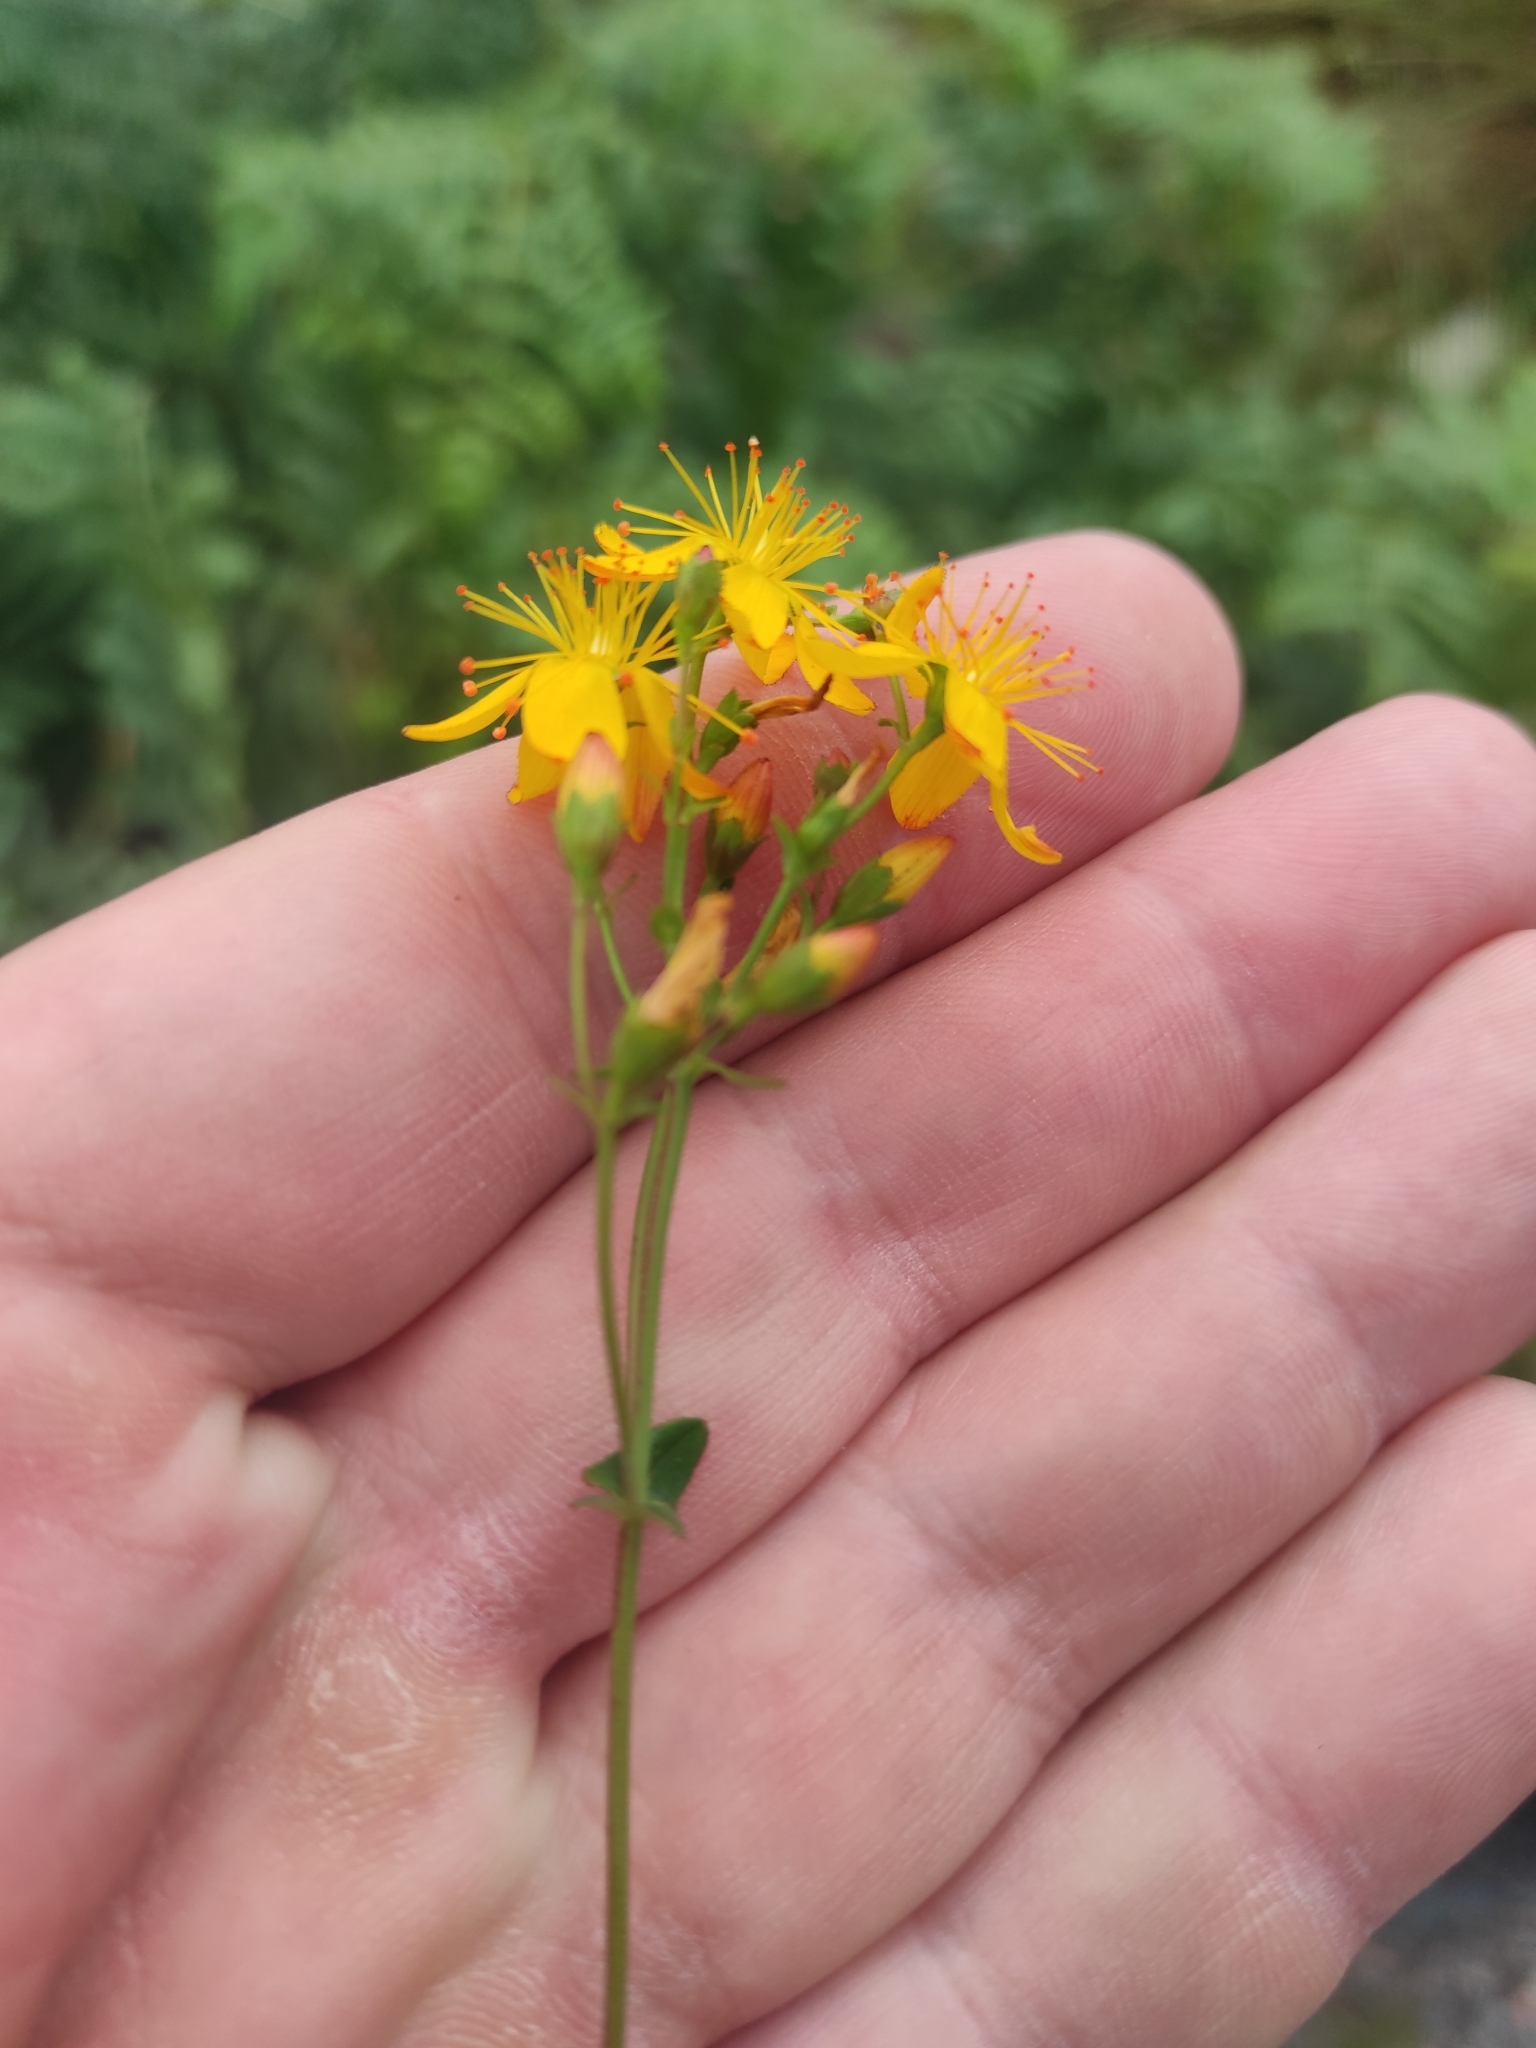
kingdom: Plantae
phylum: Tracheophyta
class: Magnoliopsida
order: Malpighiales
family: Hypericaceae
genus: Hypericum
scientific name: Hypericum pulchrum
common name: Slender st. john's-wort
